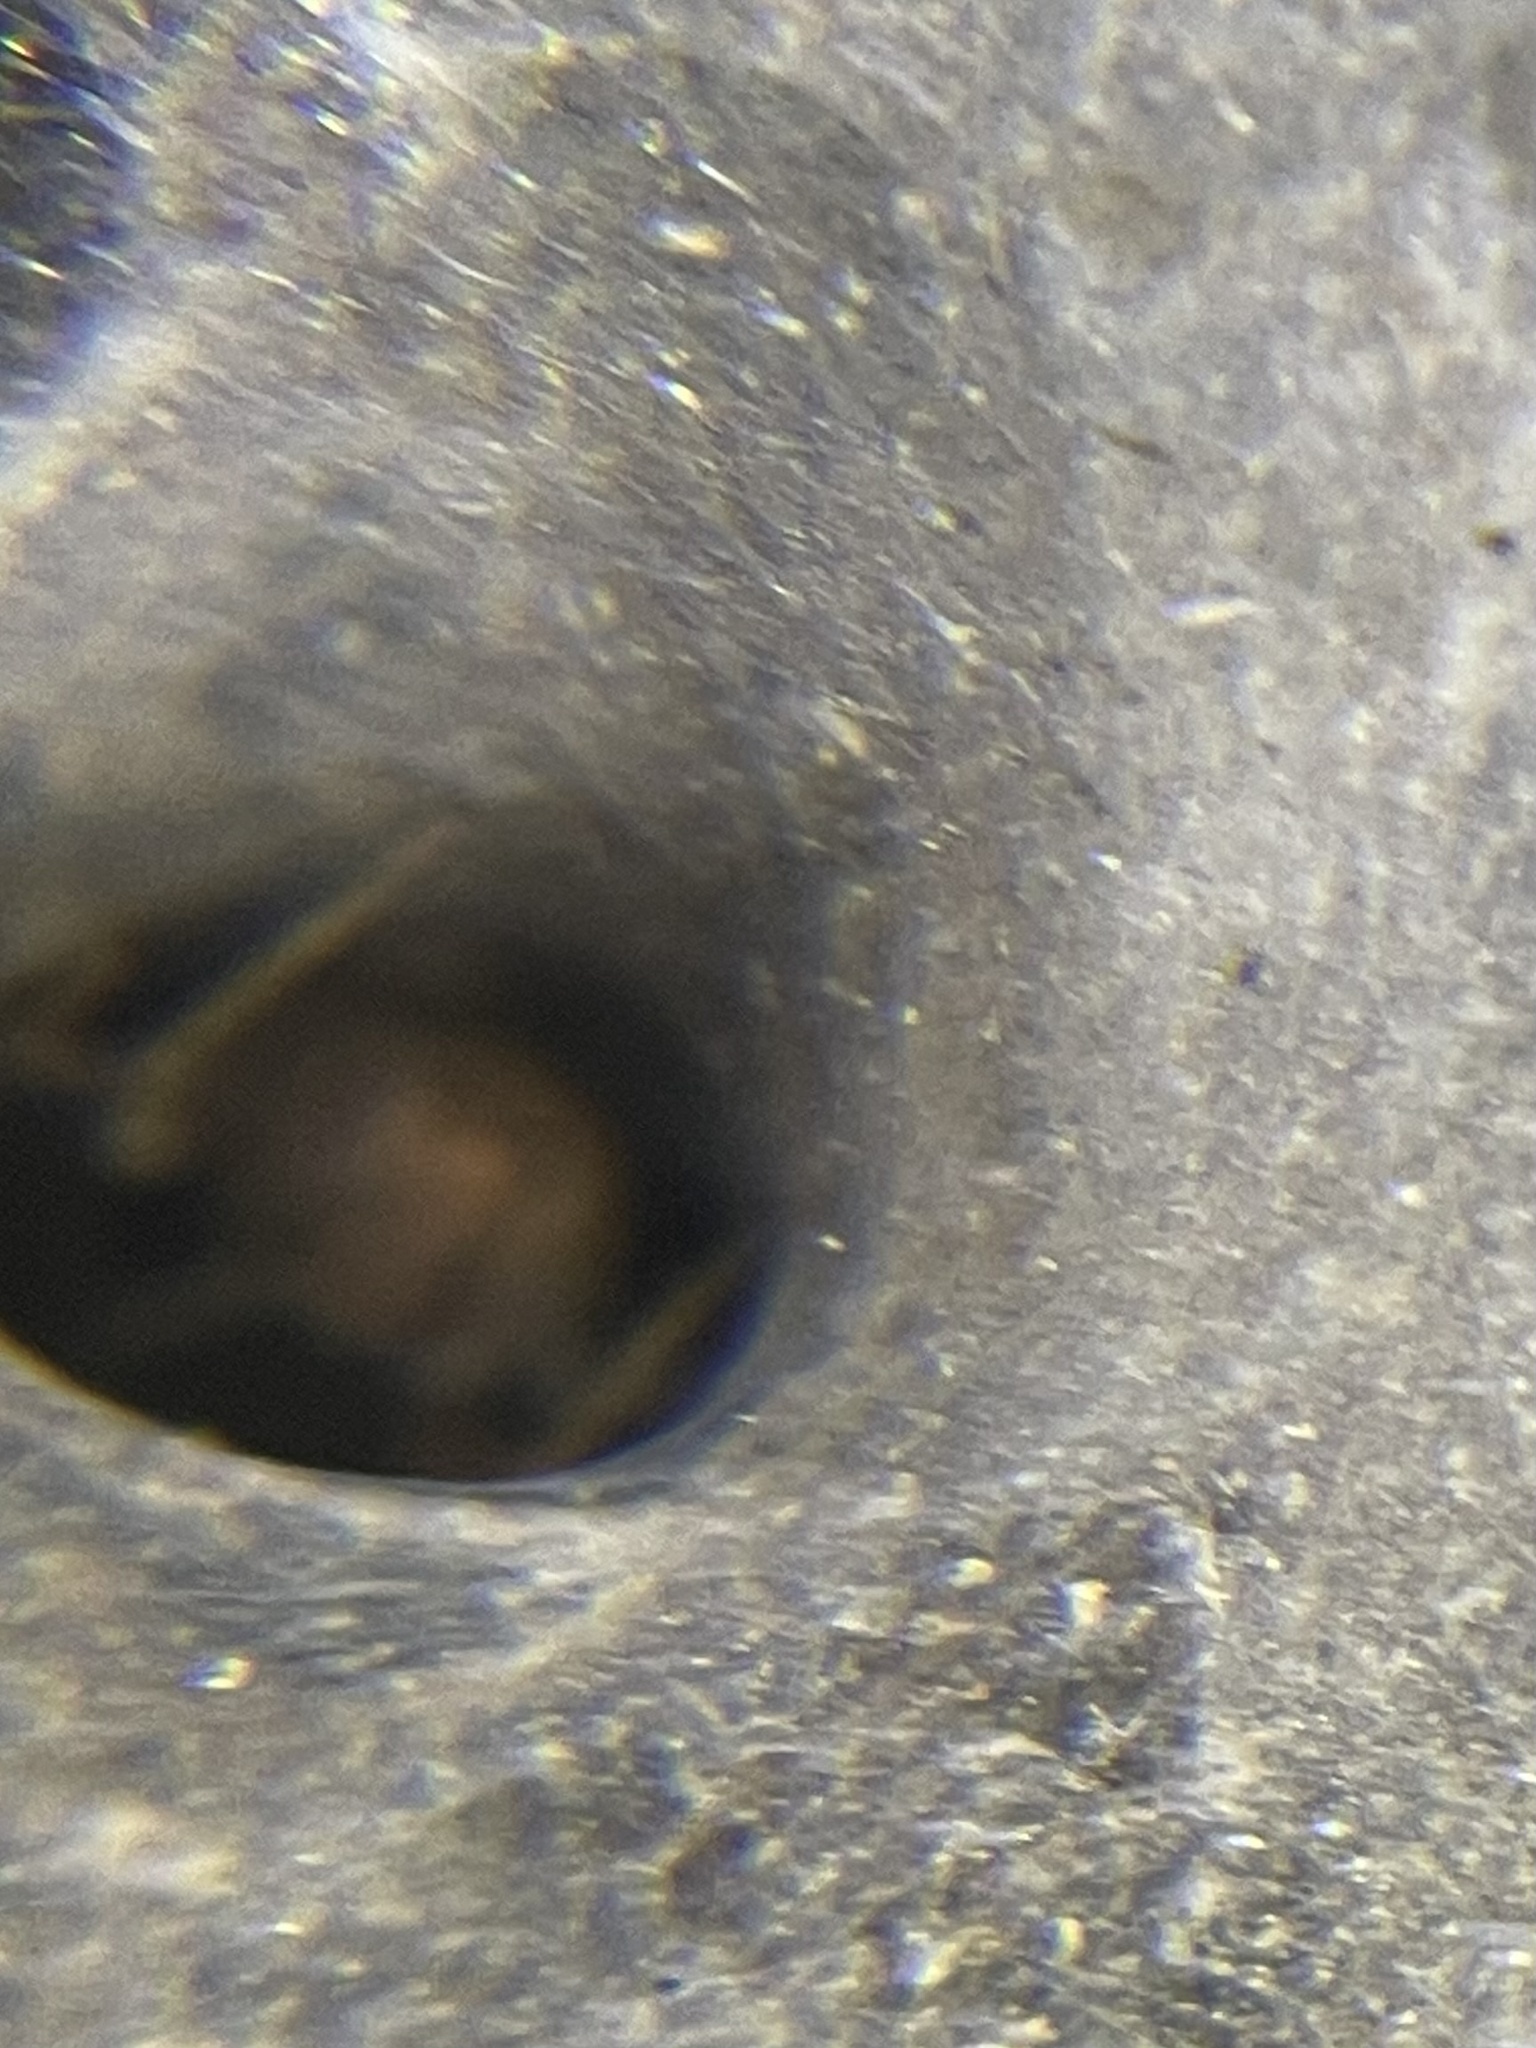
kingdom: Animalia
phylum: Arthropoda
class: Arachnida
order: Araneae
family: Agelenidae
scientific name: Agelenidae
